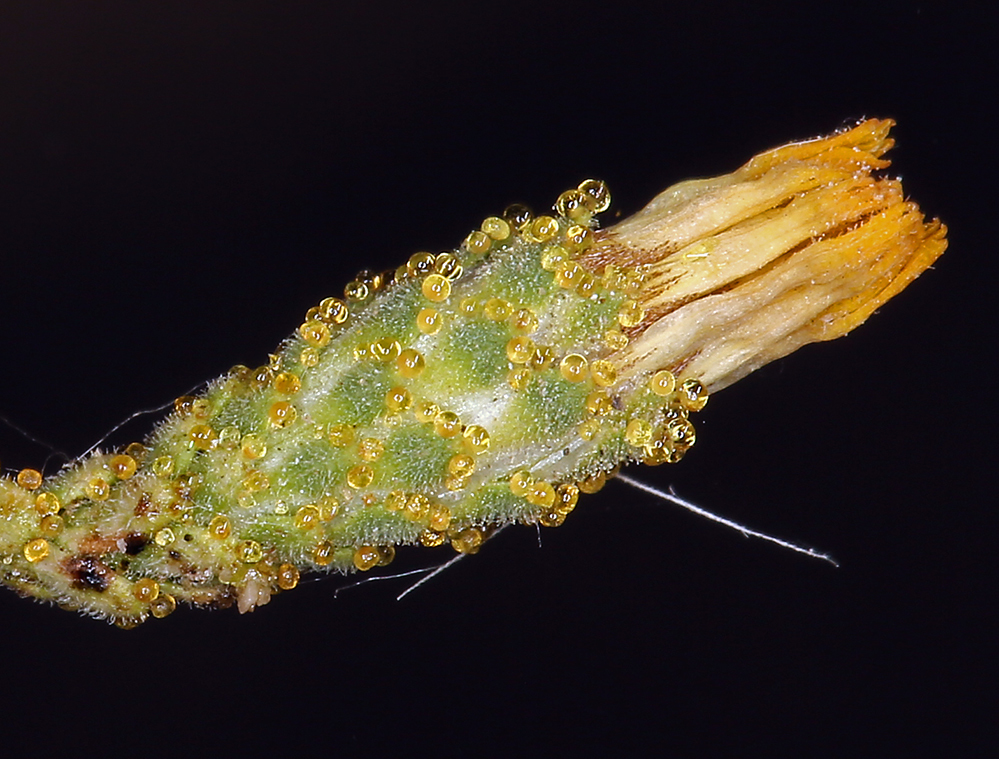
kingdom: Plantae
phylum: Tracheophyta
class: Magnoliopsida
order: Asterales
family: Asteraceae
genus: Lessingia
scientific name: Lessingia glandulifera
